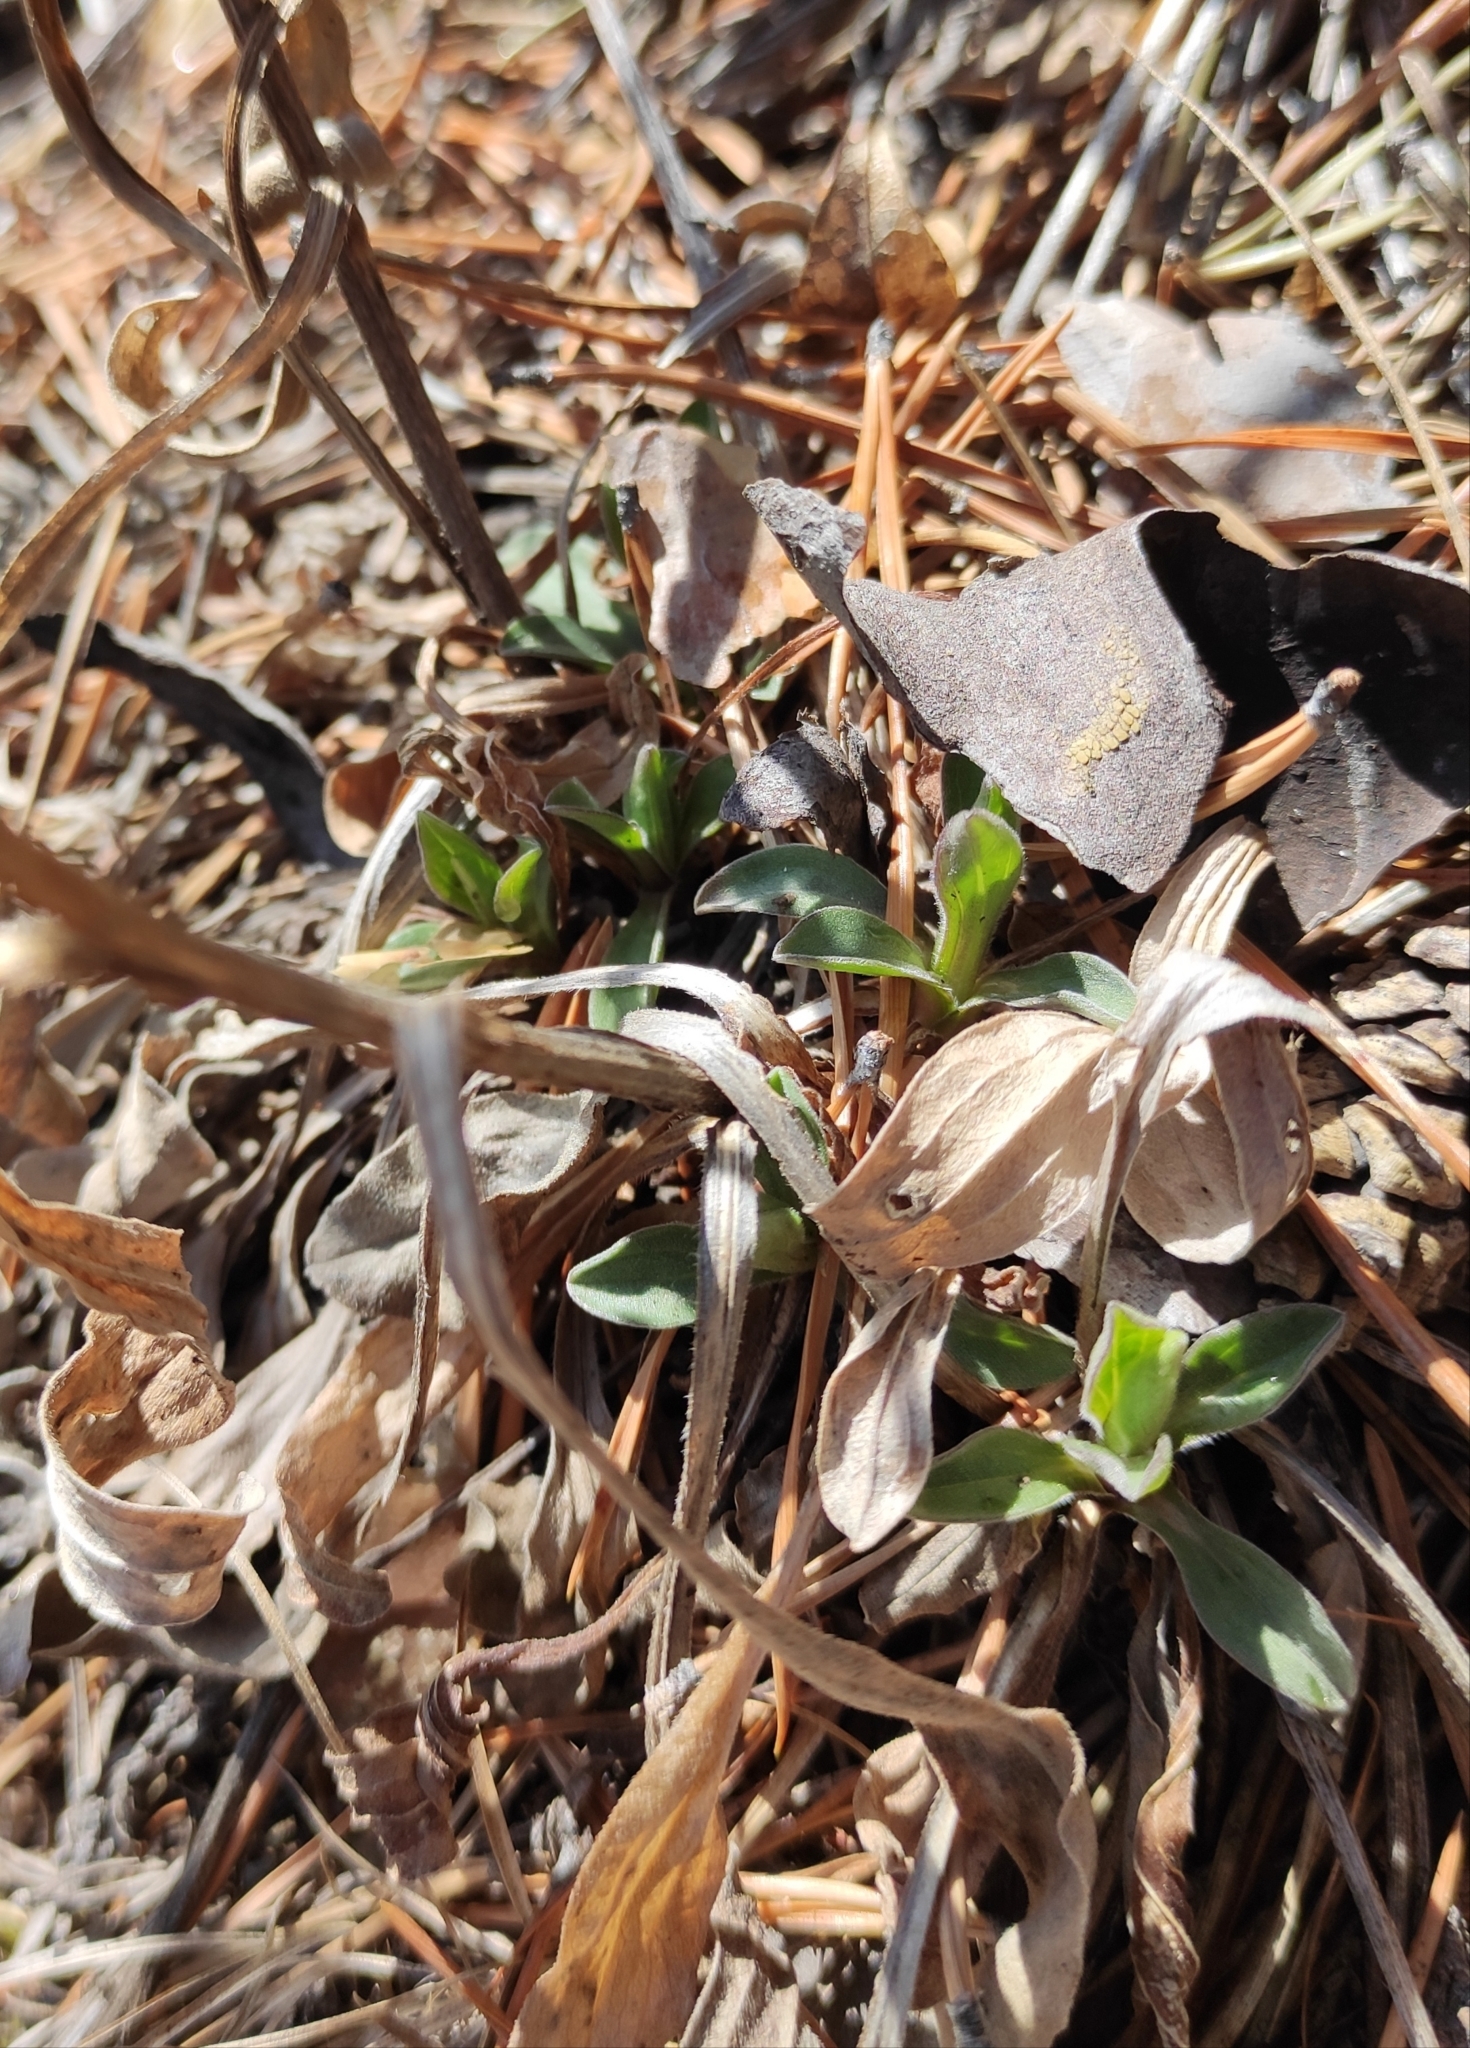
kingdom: Plantae
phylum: Tracheophyta
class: Magnoliopsida
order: Asterales
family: Asteraceae
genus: Aster
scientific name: Aster alpinus
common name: Alpine aster
